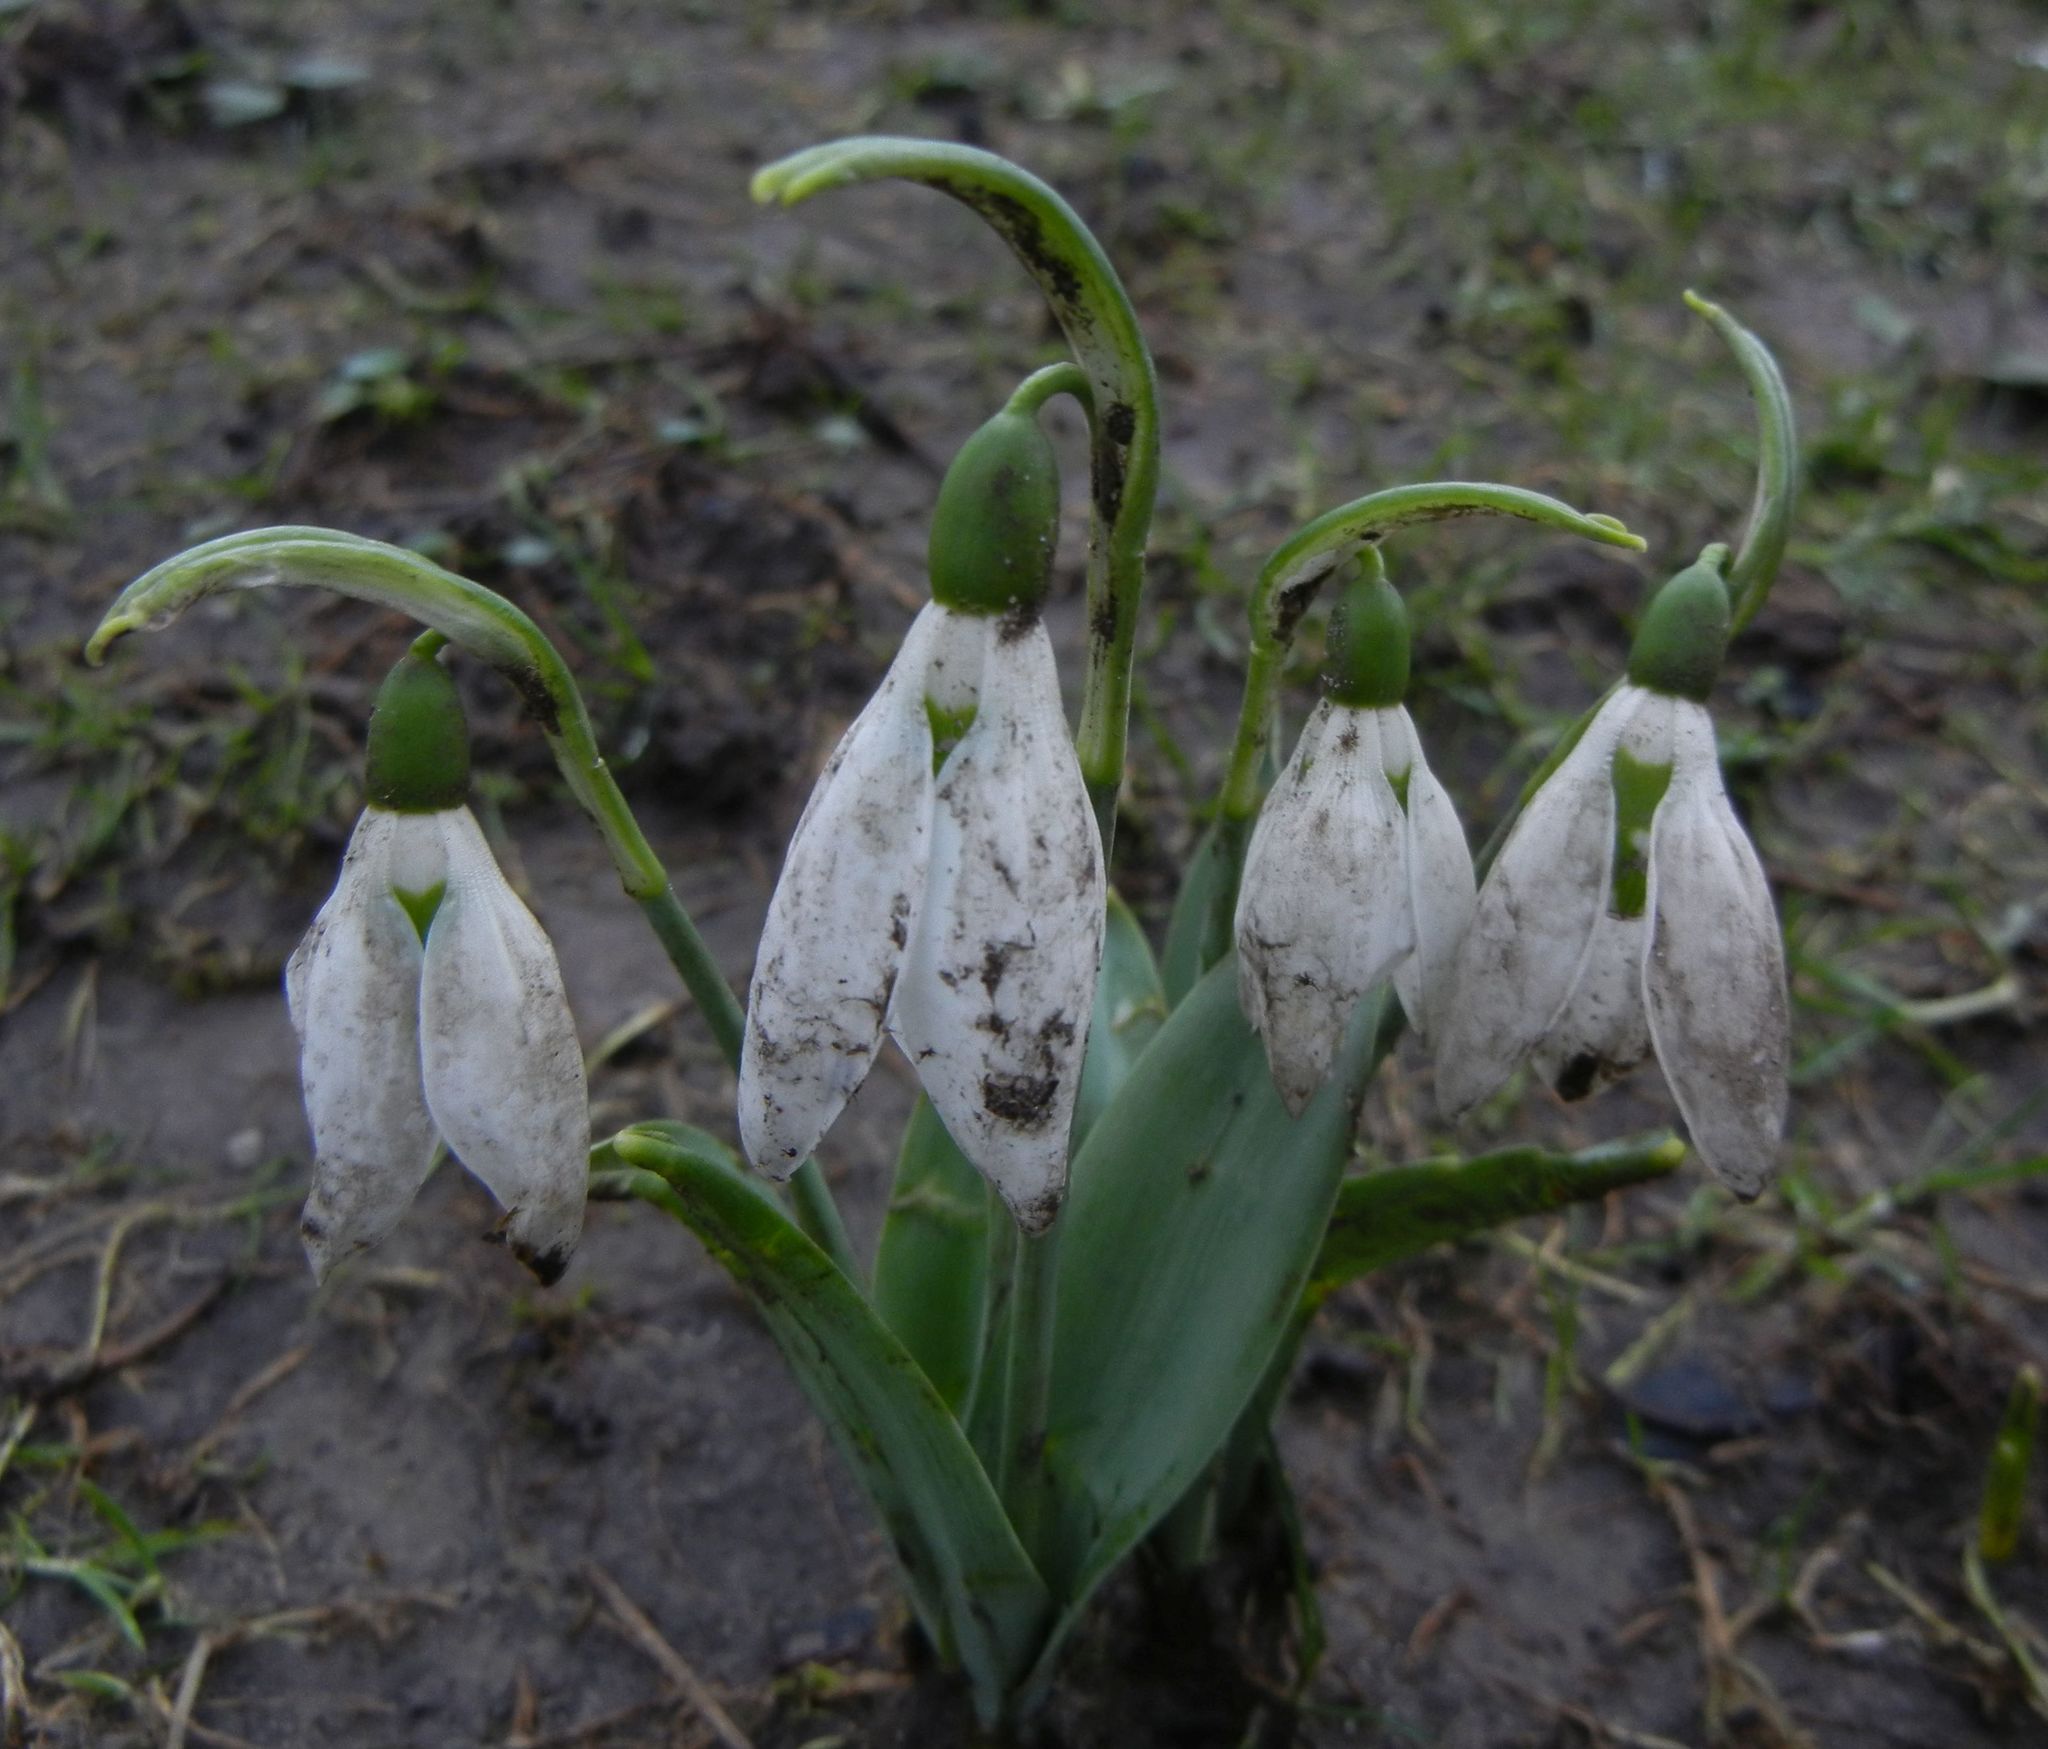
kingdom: Plantae
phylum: Tracheophyta
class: Liliopsida
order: Asparagales
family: Amaryllidaceae
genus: Galanthus
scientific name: Galanthus elwesii
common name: Greater snowdrop
